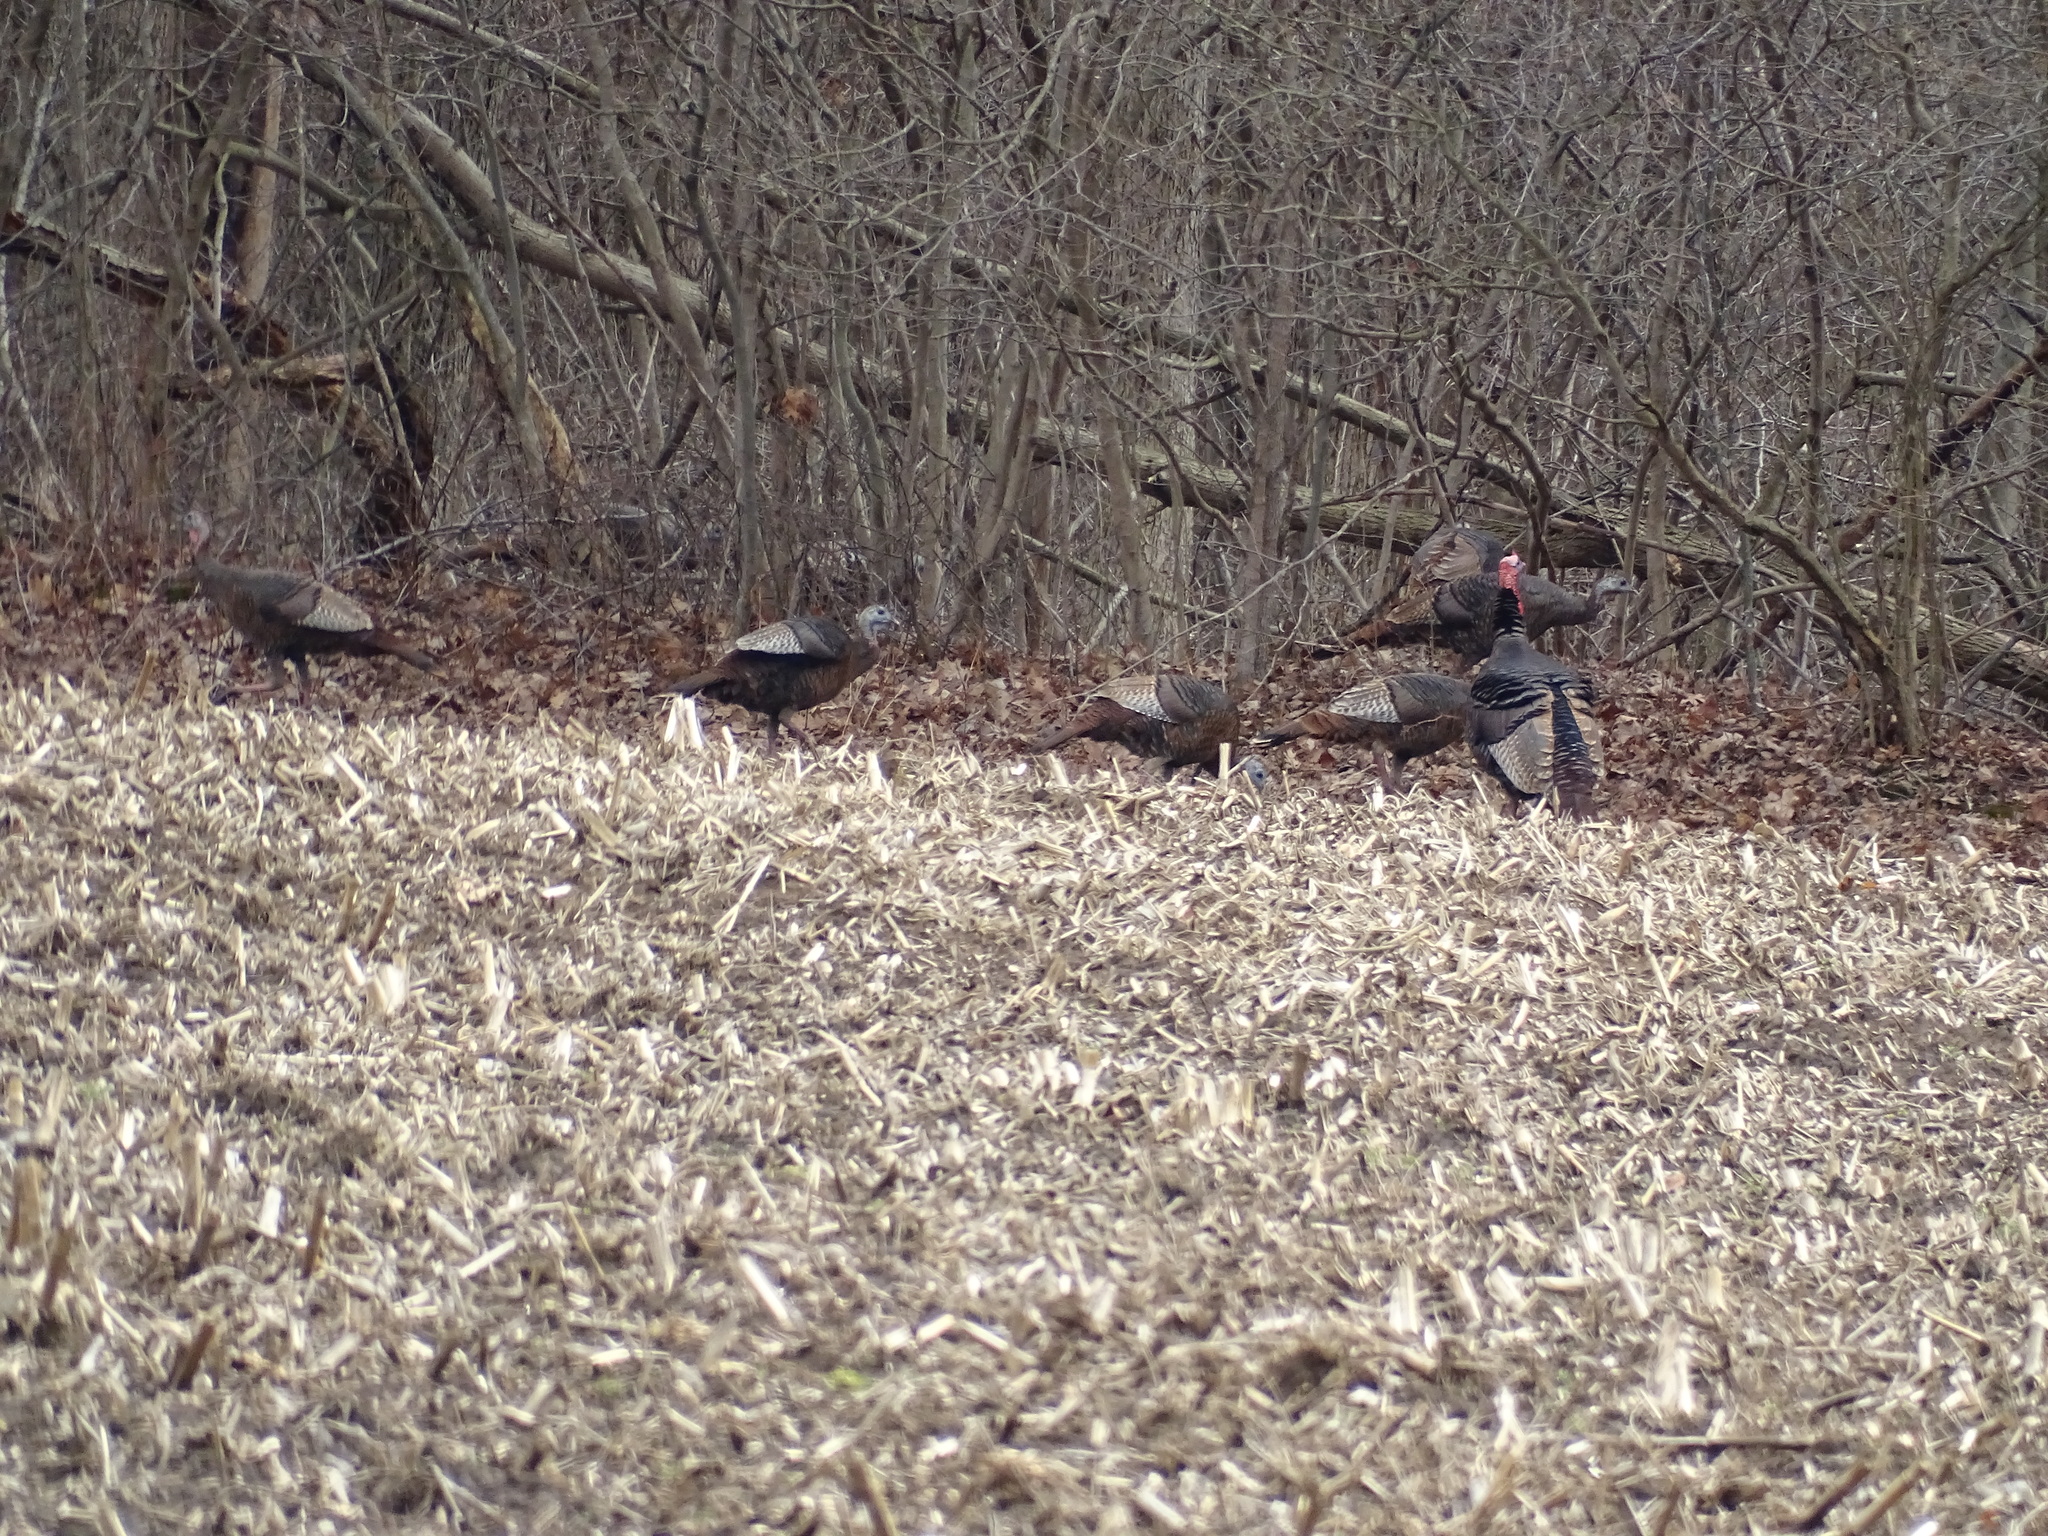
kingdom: Animalia
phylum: Chordata
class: Aves
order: Galliformes
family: Phasianidae
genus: Meleagris
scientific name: Meleagris gallopavo
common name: Wild turkey
